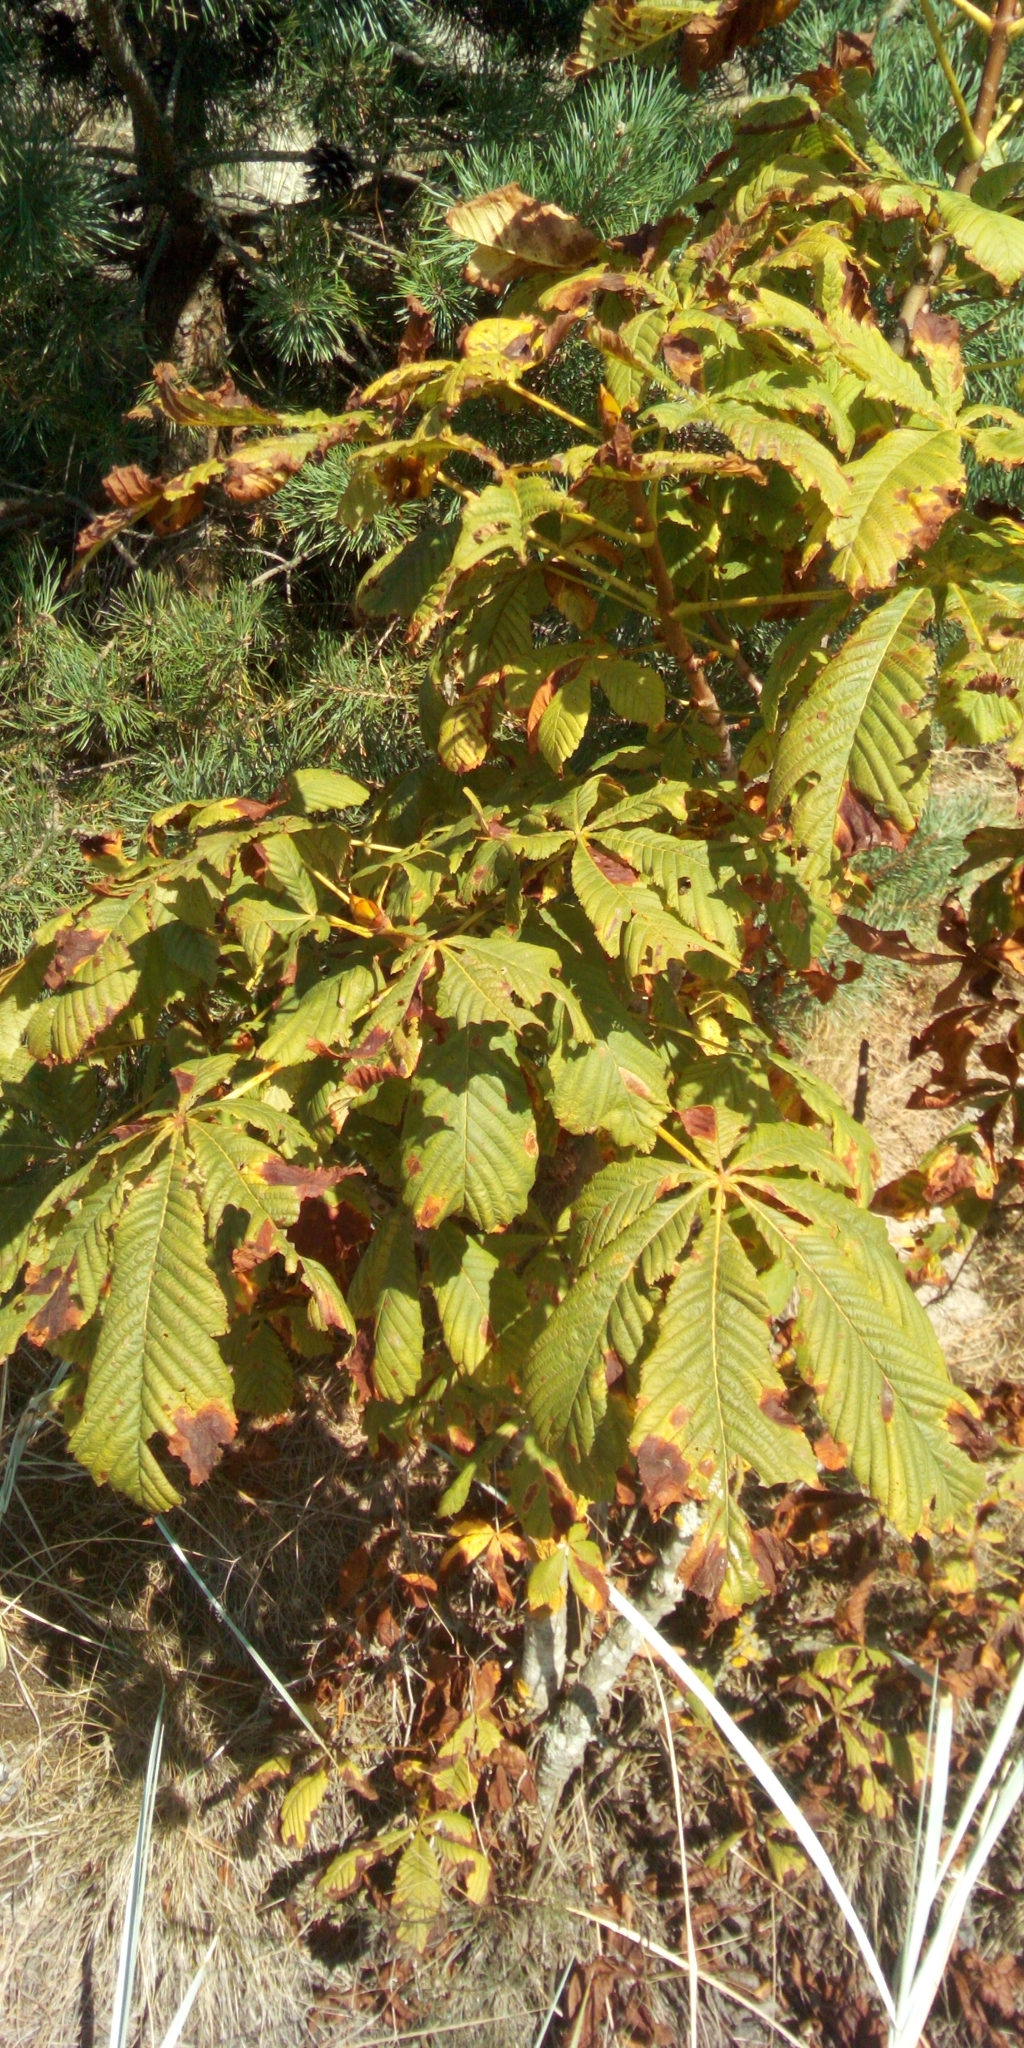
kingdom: Plantae
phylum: Tracheophyta
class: Magnoliopsida
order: Sapindales
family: Sapindaceae
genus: Aesculus
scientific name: Aesculus hippocastanum
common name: Horse-chestnut
